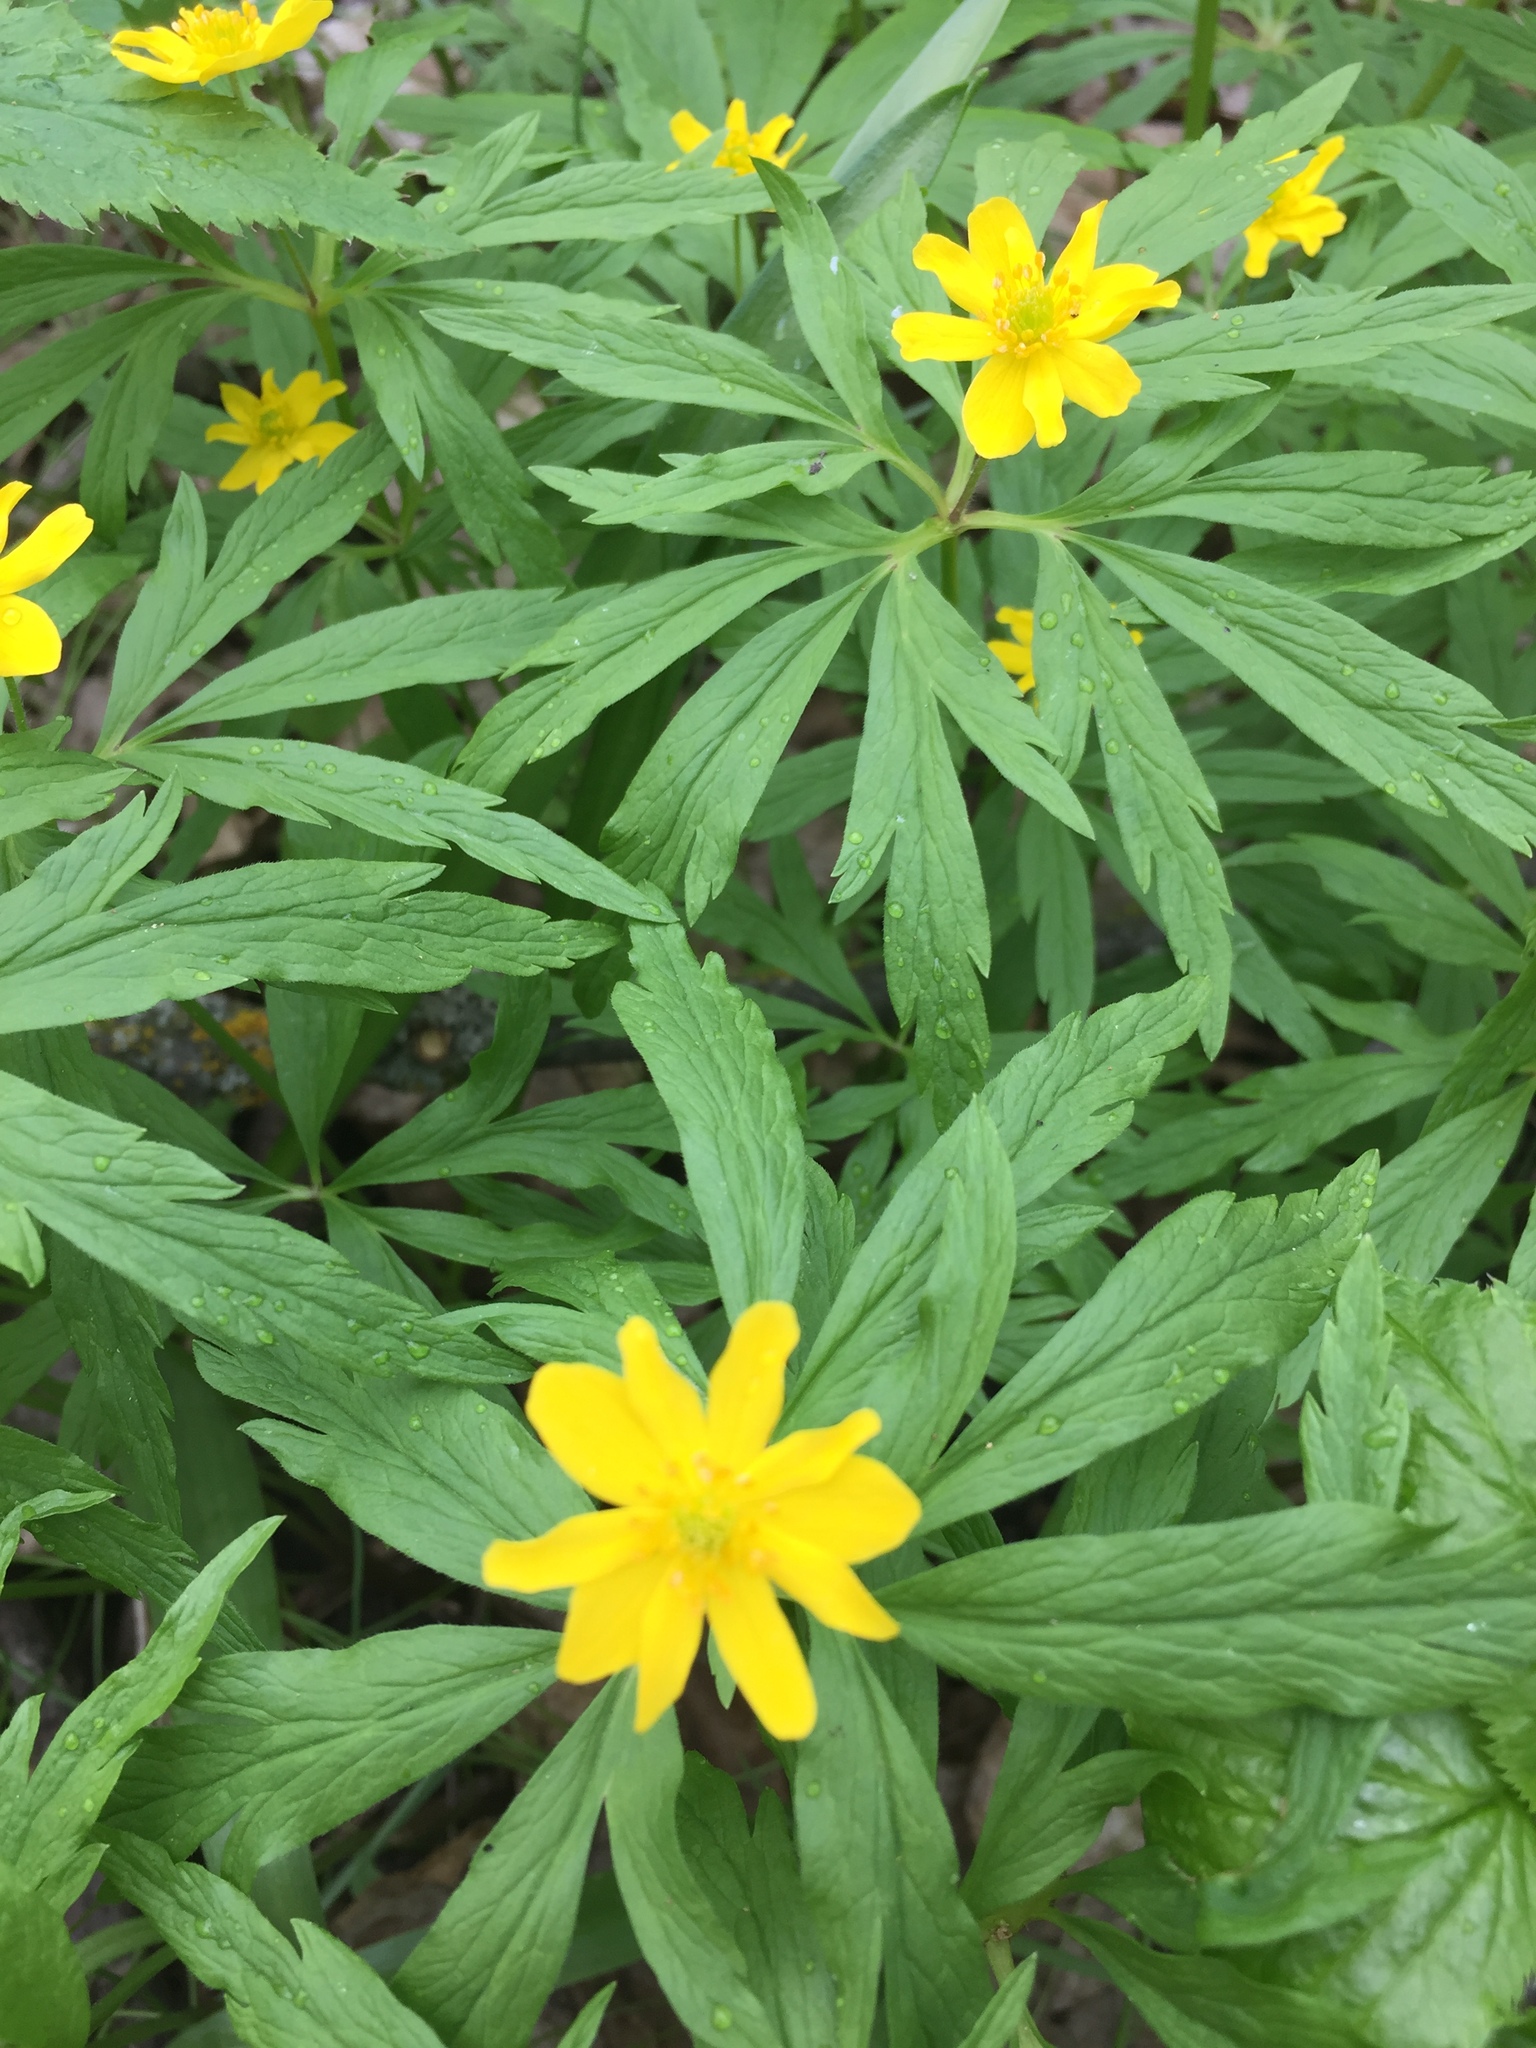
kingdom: Plantae
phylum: Tracheophyta
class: Magnoliopsida
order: Ranunculales
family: Ranunculaceae
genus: Anemone
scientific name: Anemone ranunculoides
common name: Yellow anemone
